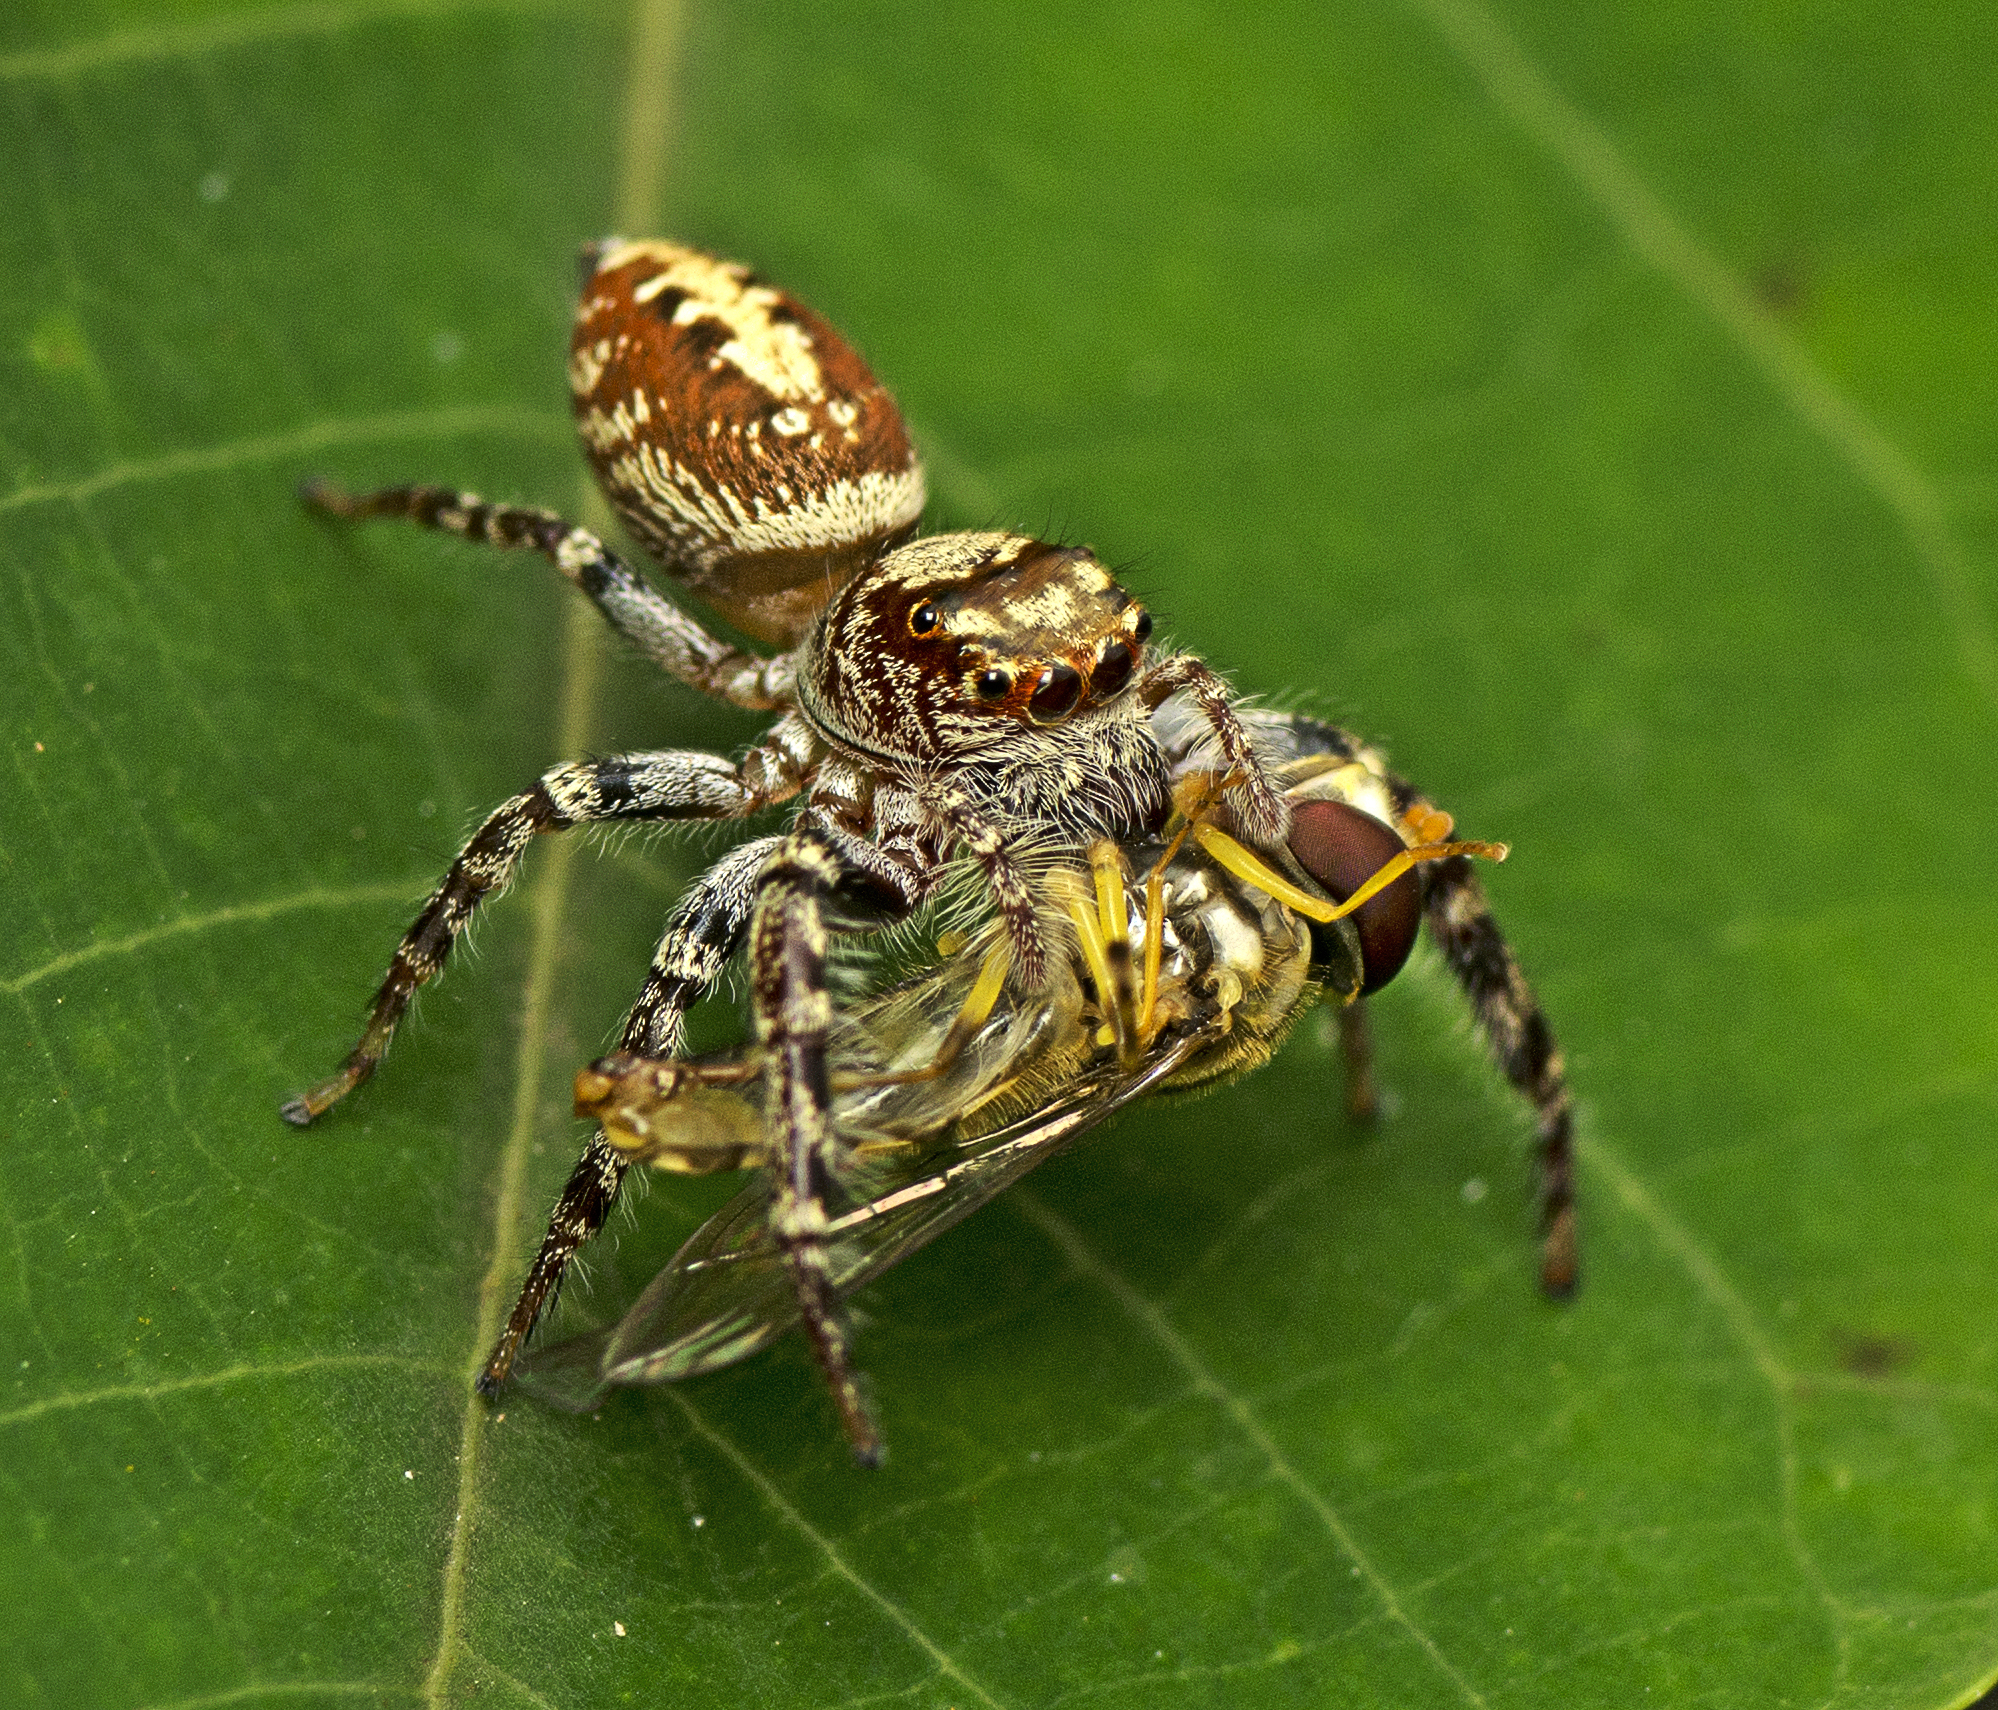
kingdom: Animalia
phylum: Arthropoda
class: Arachnida
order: Araneae
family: Salticidae
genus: Opisthoncus
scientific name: Opisthoncus quadratarius
